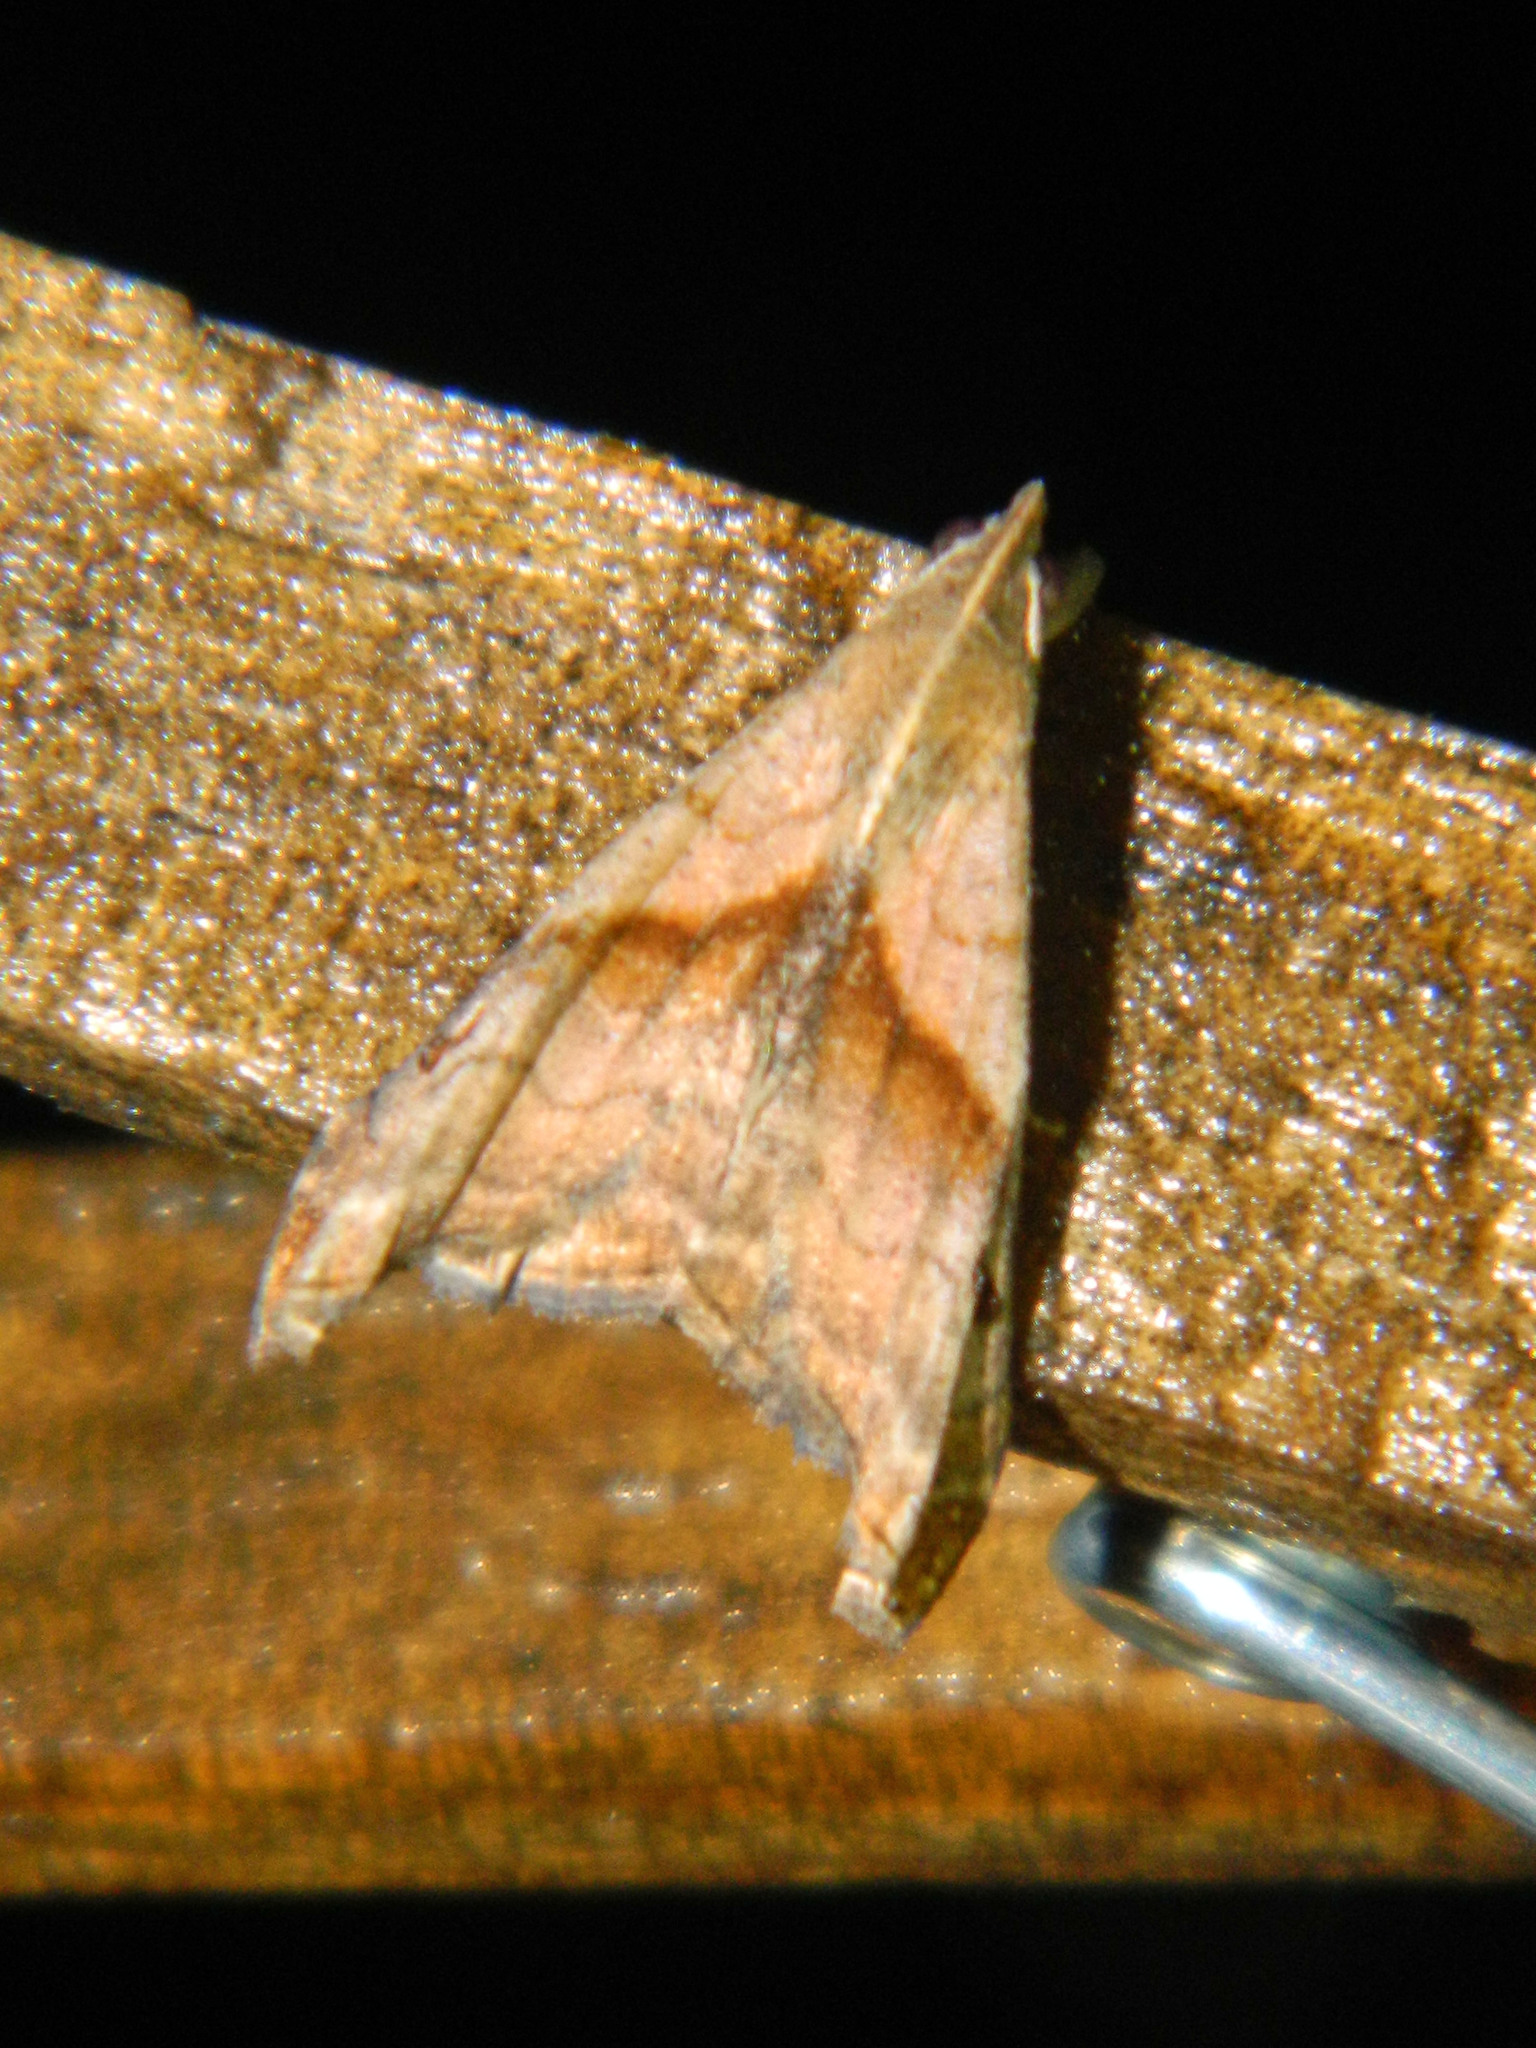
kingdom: Animalia
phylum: Arthropoda
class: Insecta
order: Lepidoptera
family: Erebidae
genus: Palthis
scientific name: Palthis angulalis
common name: Dark-spotted palthis moth
